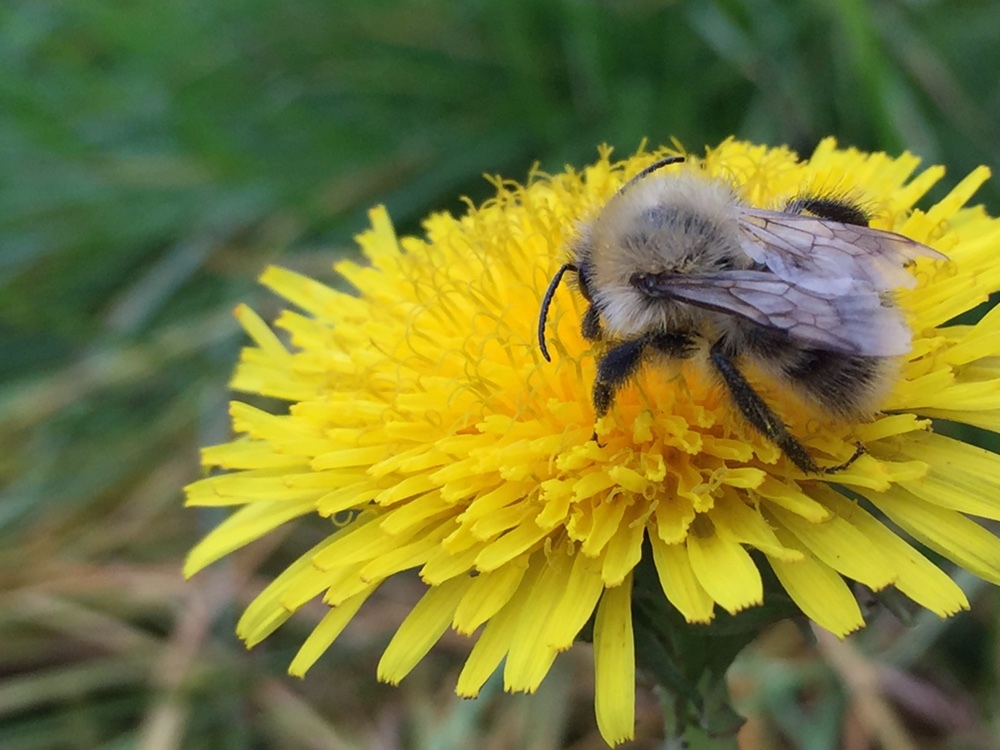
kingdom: Animalia
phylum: Arthropoda
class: Insecta
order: Hymenoptera
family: Apidae
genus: Bombus
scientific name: Bombus pascuorum
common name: Common carder bee
